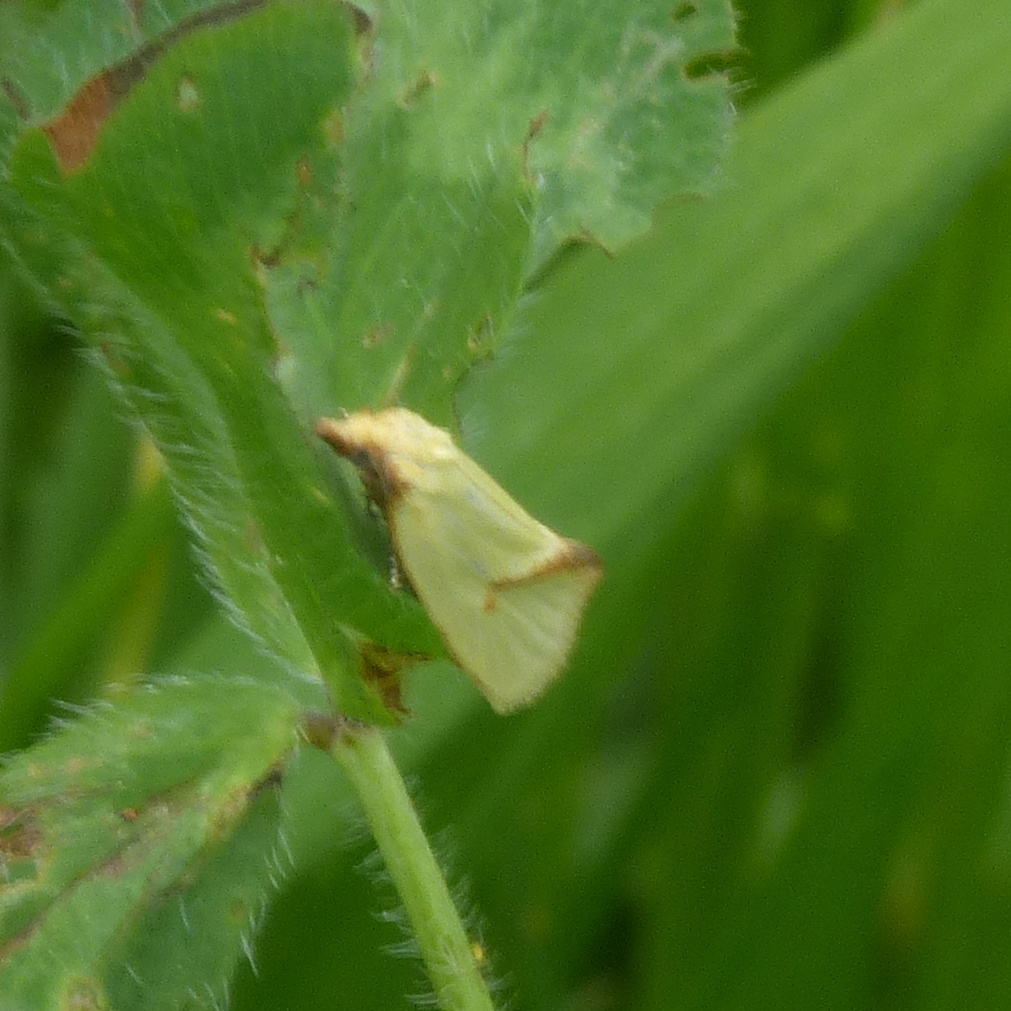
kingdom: Animalia
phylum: Arthropoda
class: Insecta
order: Lepidoptera
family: Tortricidae
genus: Agapeta
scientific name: Agapeta hamana
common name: Common yellow conch
